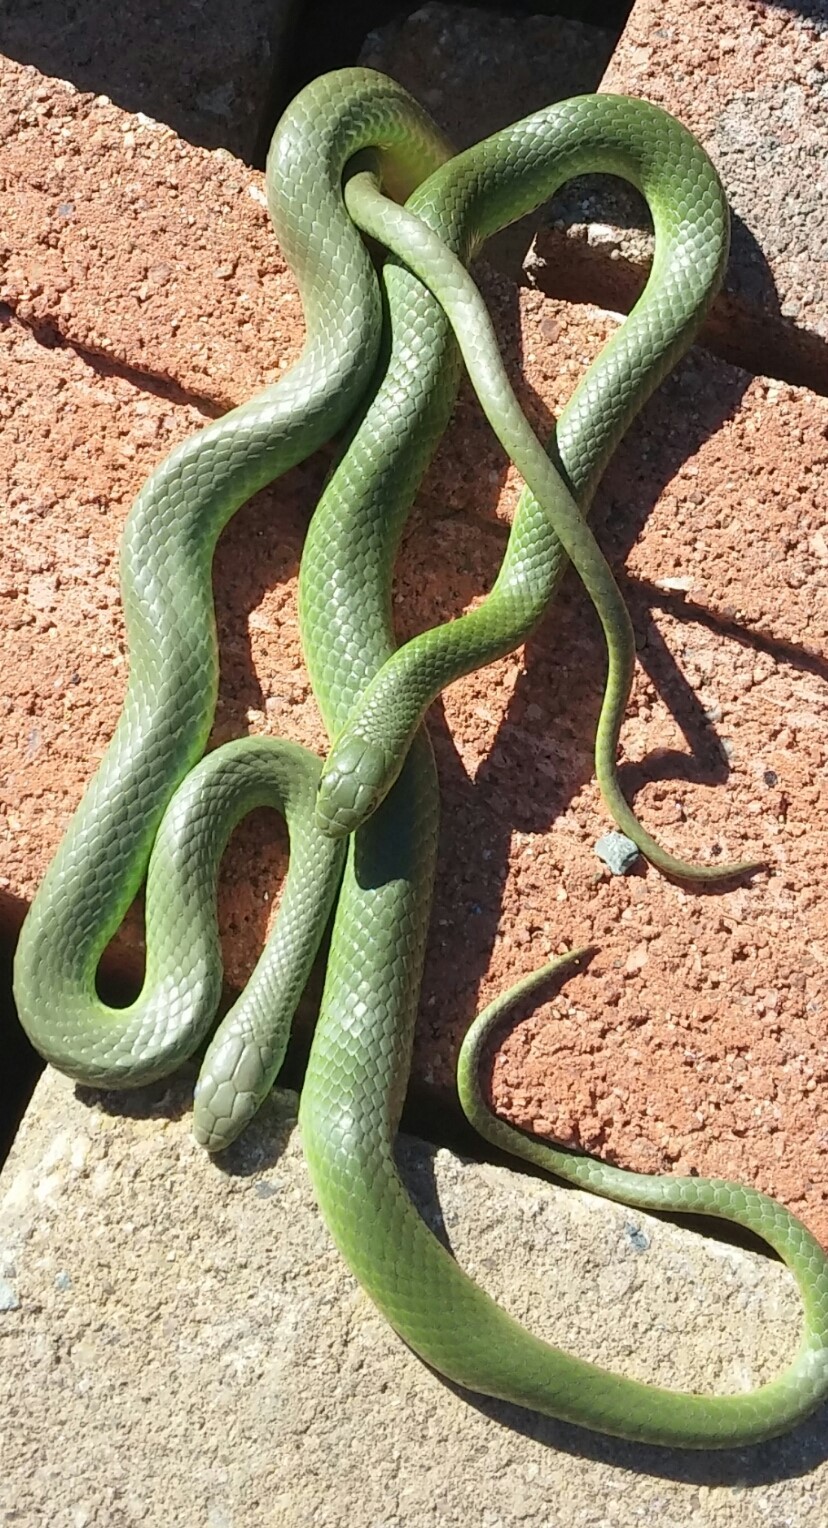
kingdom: Animalia
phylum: Chordata
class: Squamata
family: Colubridae
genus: Opheodrys
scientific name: Opheodrys vernalis
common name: Smooth green snake
